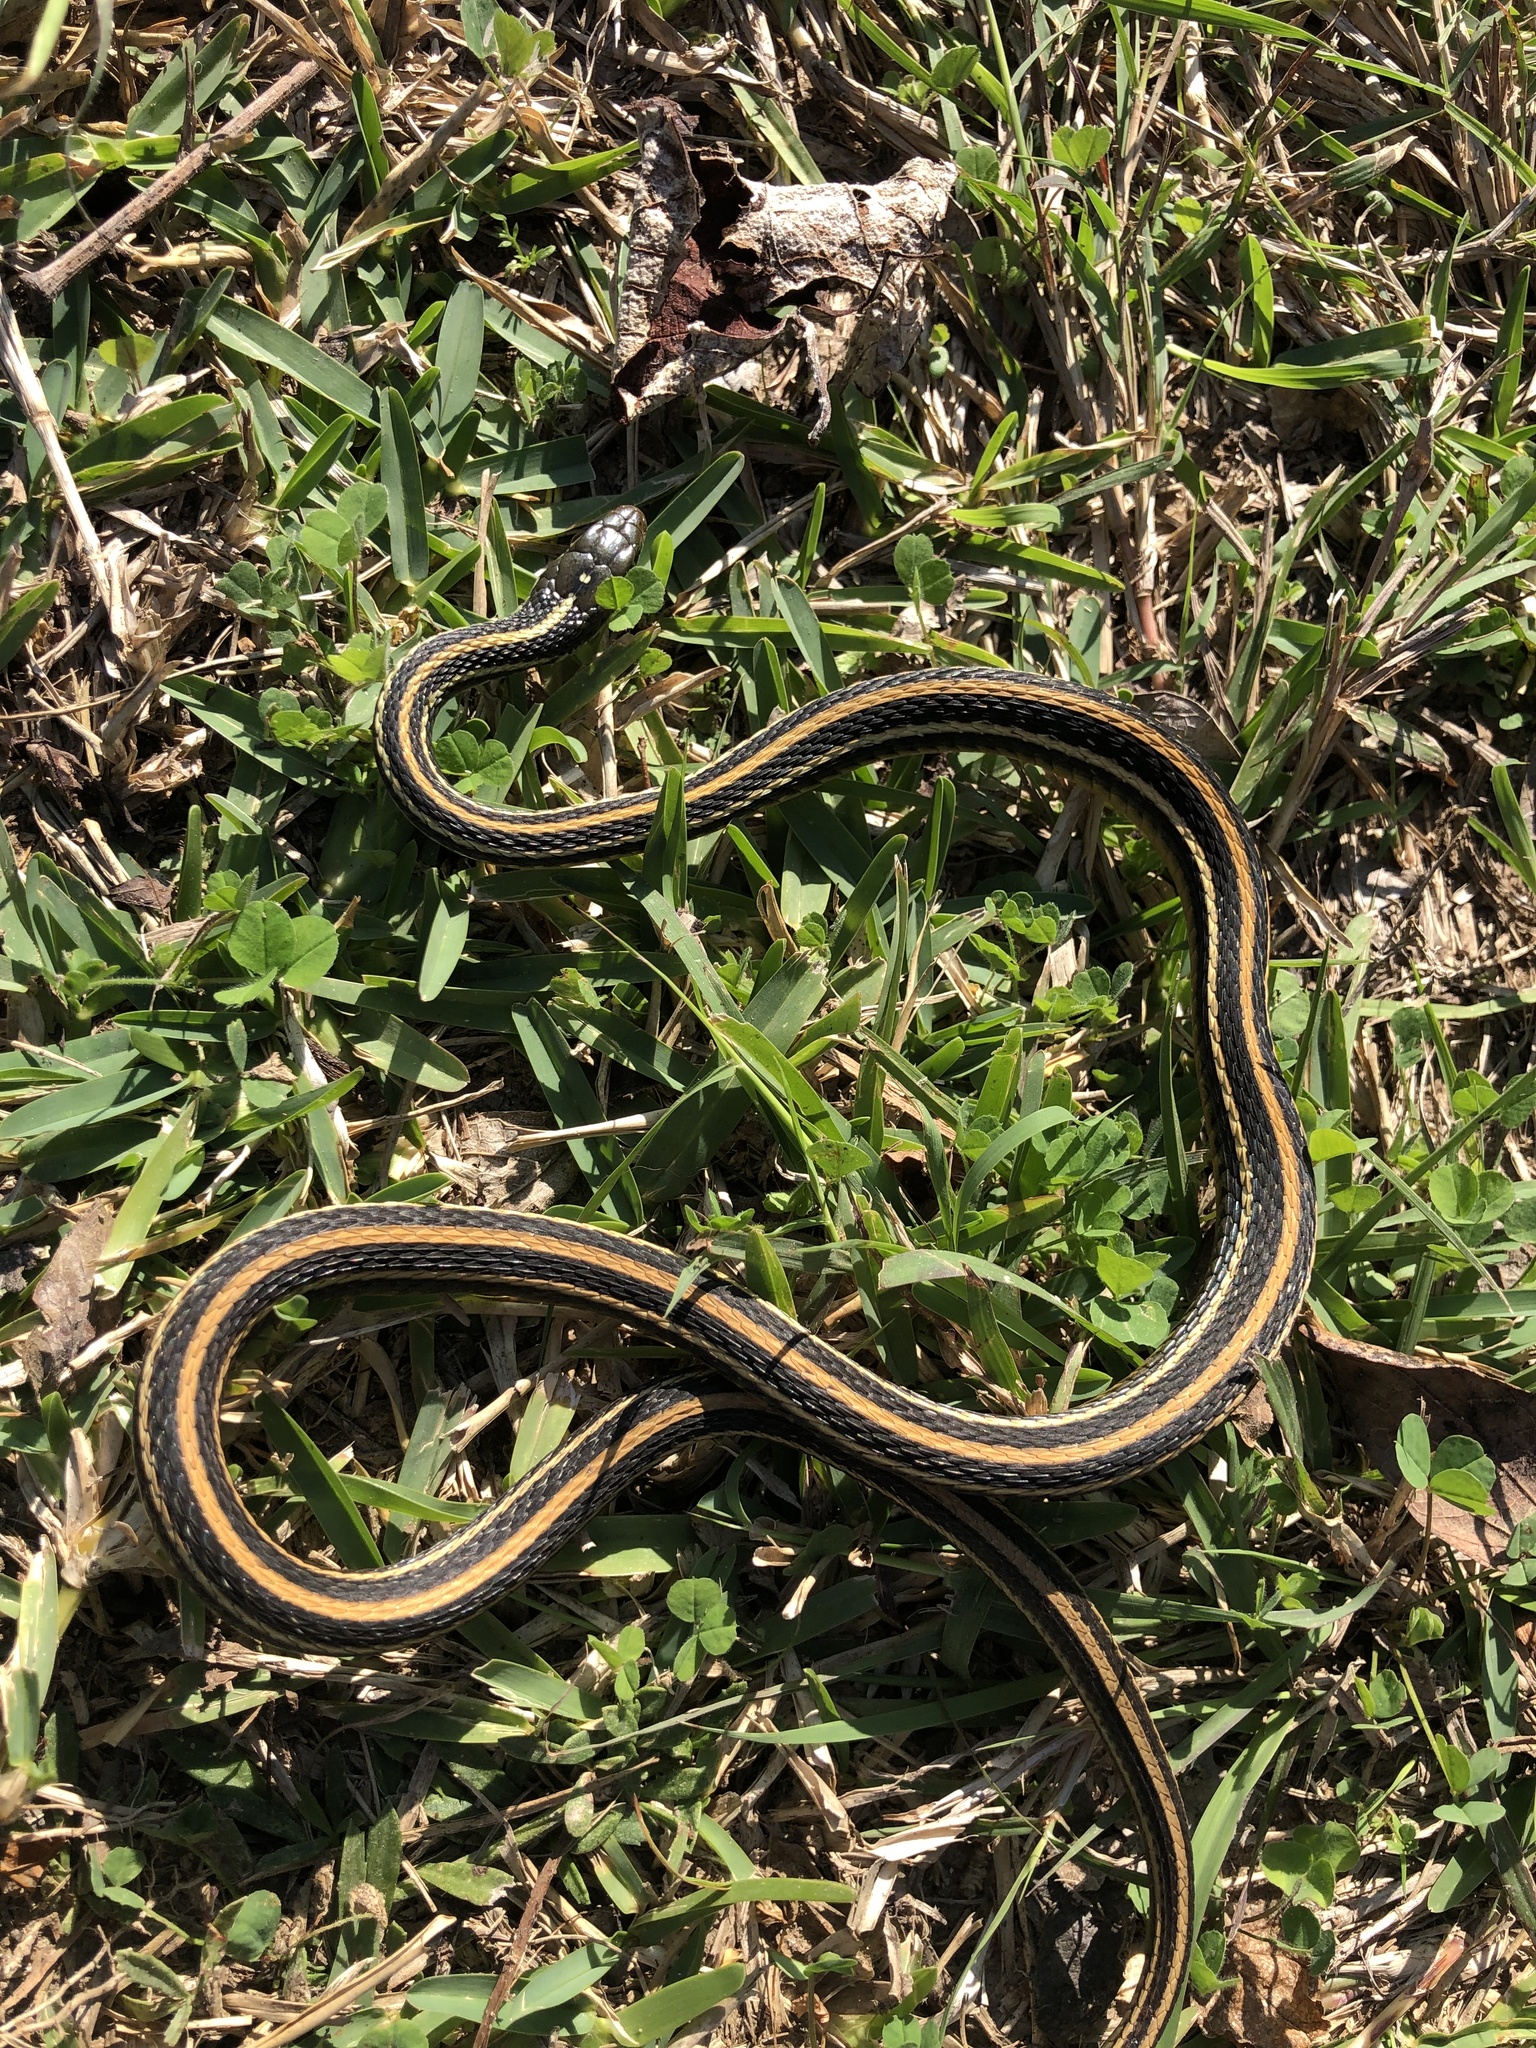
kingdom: Animalia
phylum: Chordata
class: Squamata
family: Colubridae
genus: Thamnophis
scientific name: Thamnophis proximus
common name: Western ribbon snake
